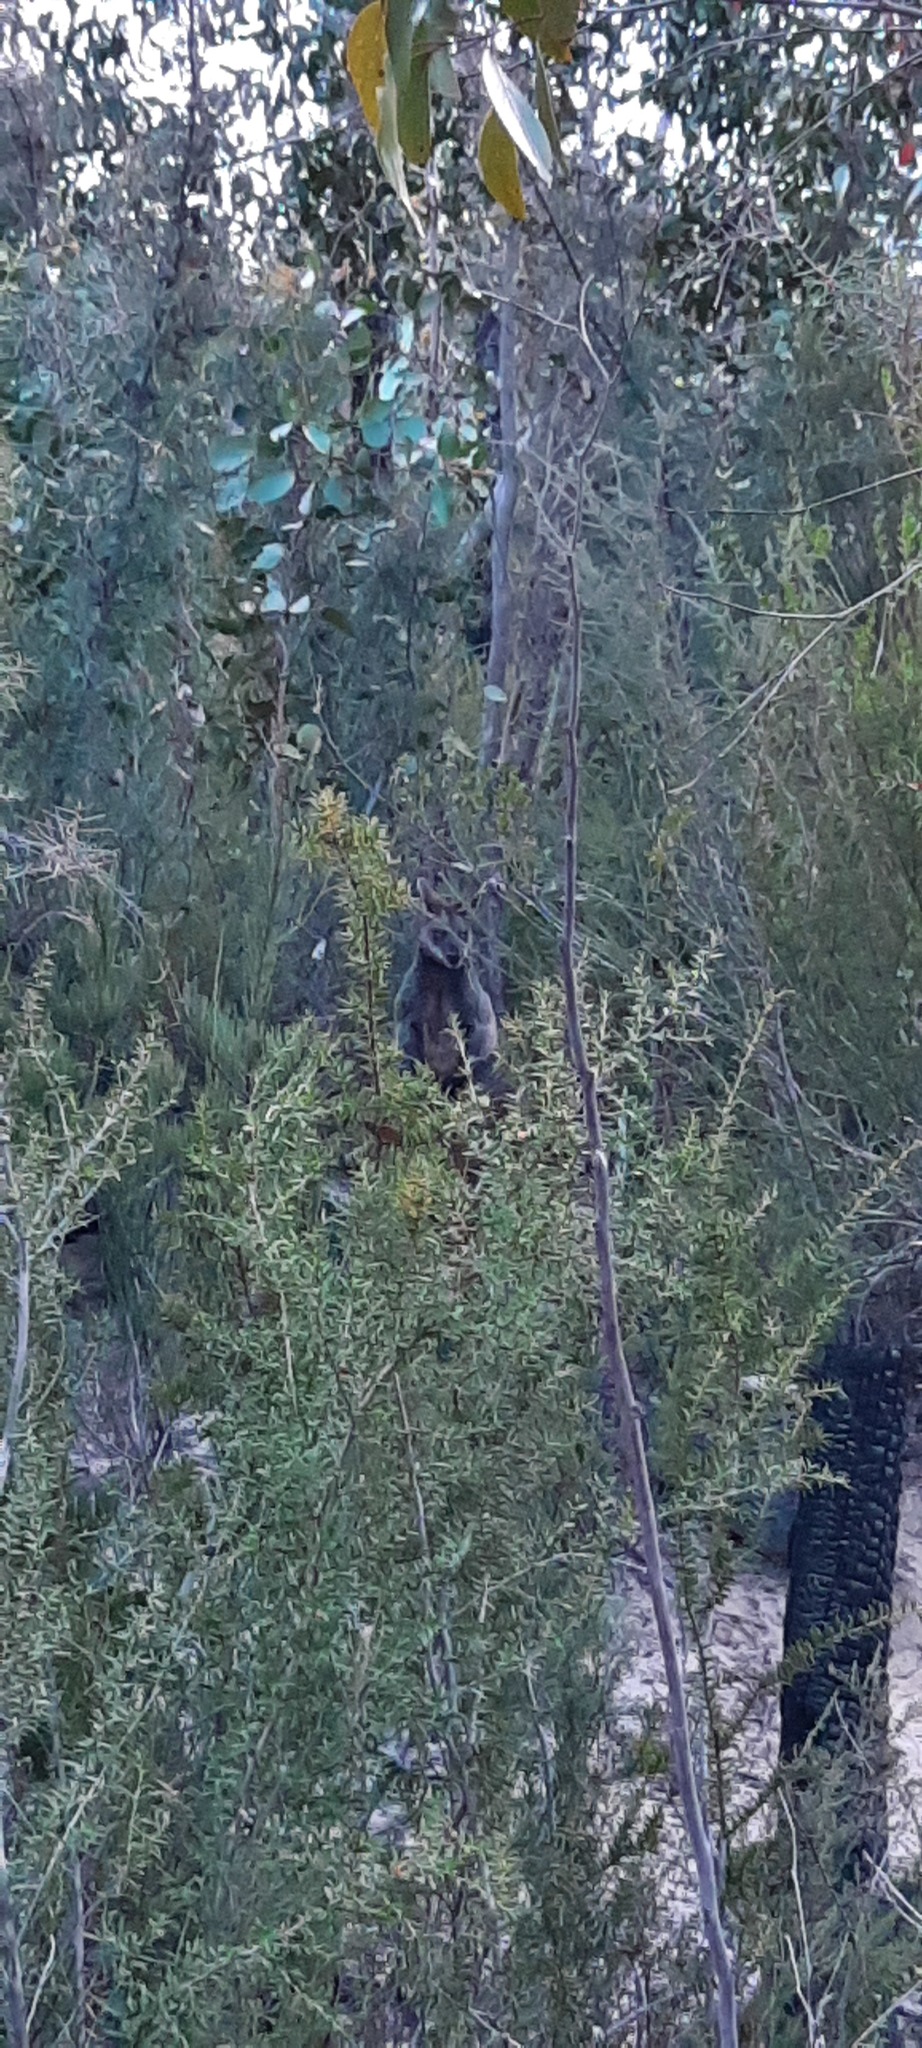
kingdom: Animalia
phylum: Chordata
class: Mammalia
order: Diprotodontia
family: Macropodidae
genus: Wallabia
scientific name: Wallabia bicolor
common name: Swamp wallaby
